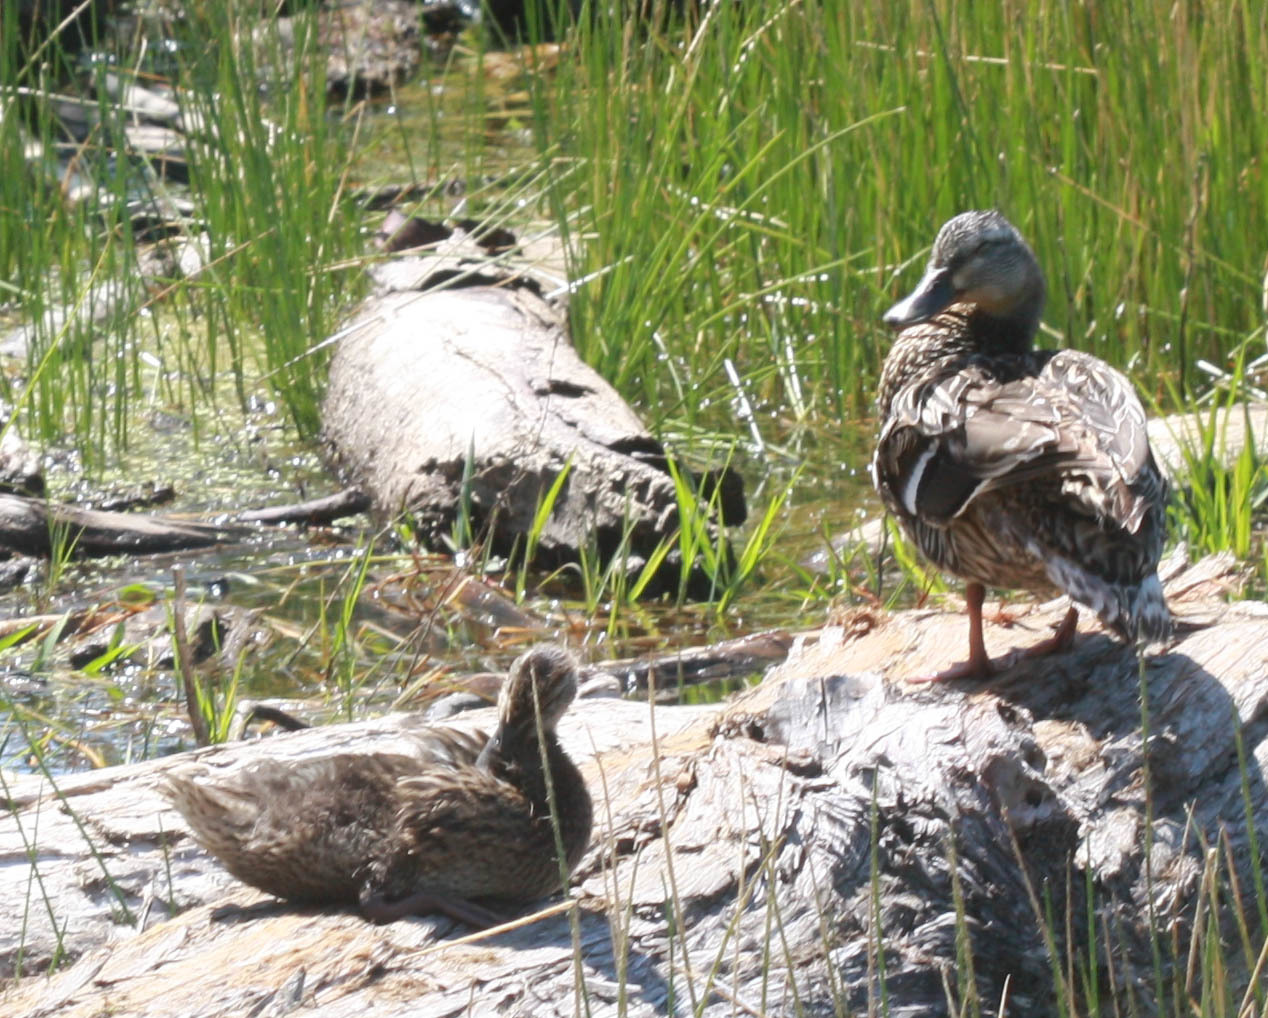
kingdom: Animalia
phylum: Chordata
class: Aves
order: Anseriformes
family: Anatidae
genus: Anas
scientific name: Anas platyrhynchos
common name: Mallard
